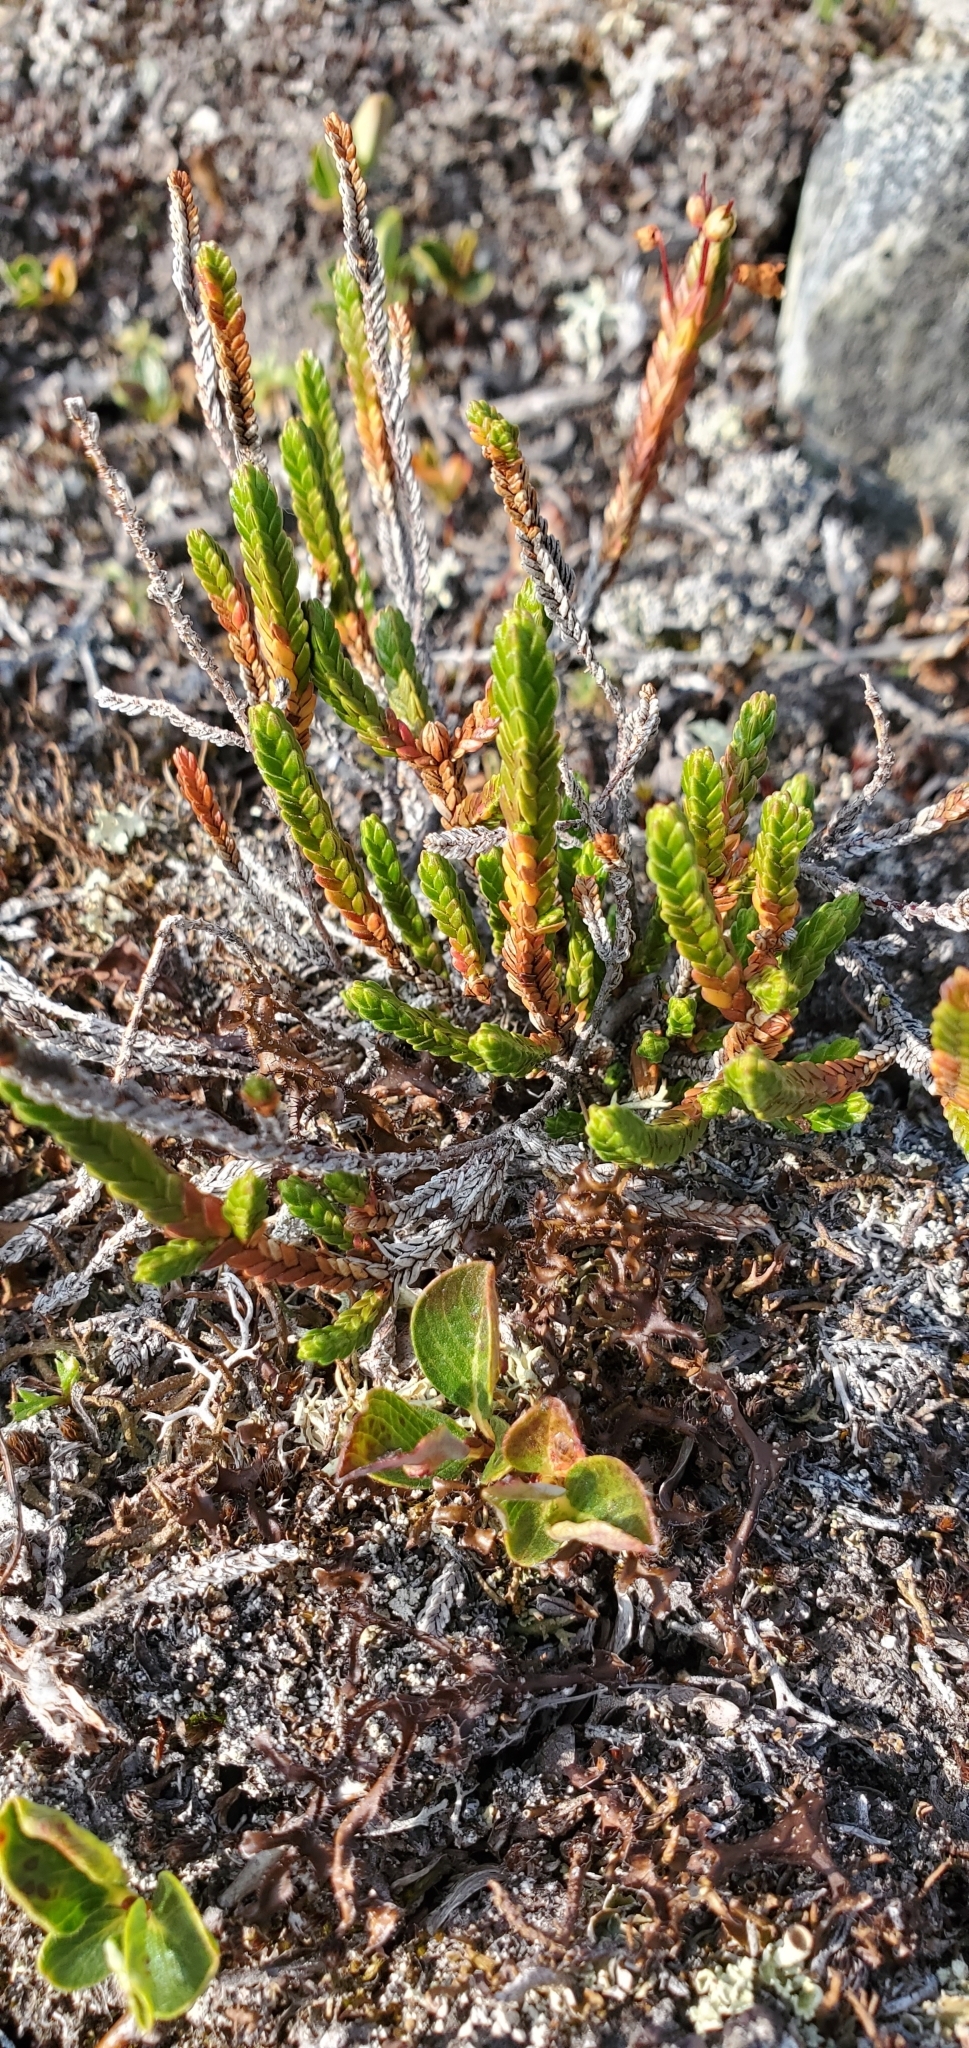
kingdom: Plantae
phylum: Tracheophyta
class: Magnoliopsida
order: Ericales
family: Ericaceae
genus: Cassiope
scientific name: Cassiope tetragona
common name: Arctic bell heather
